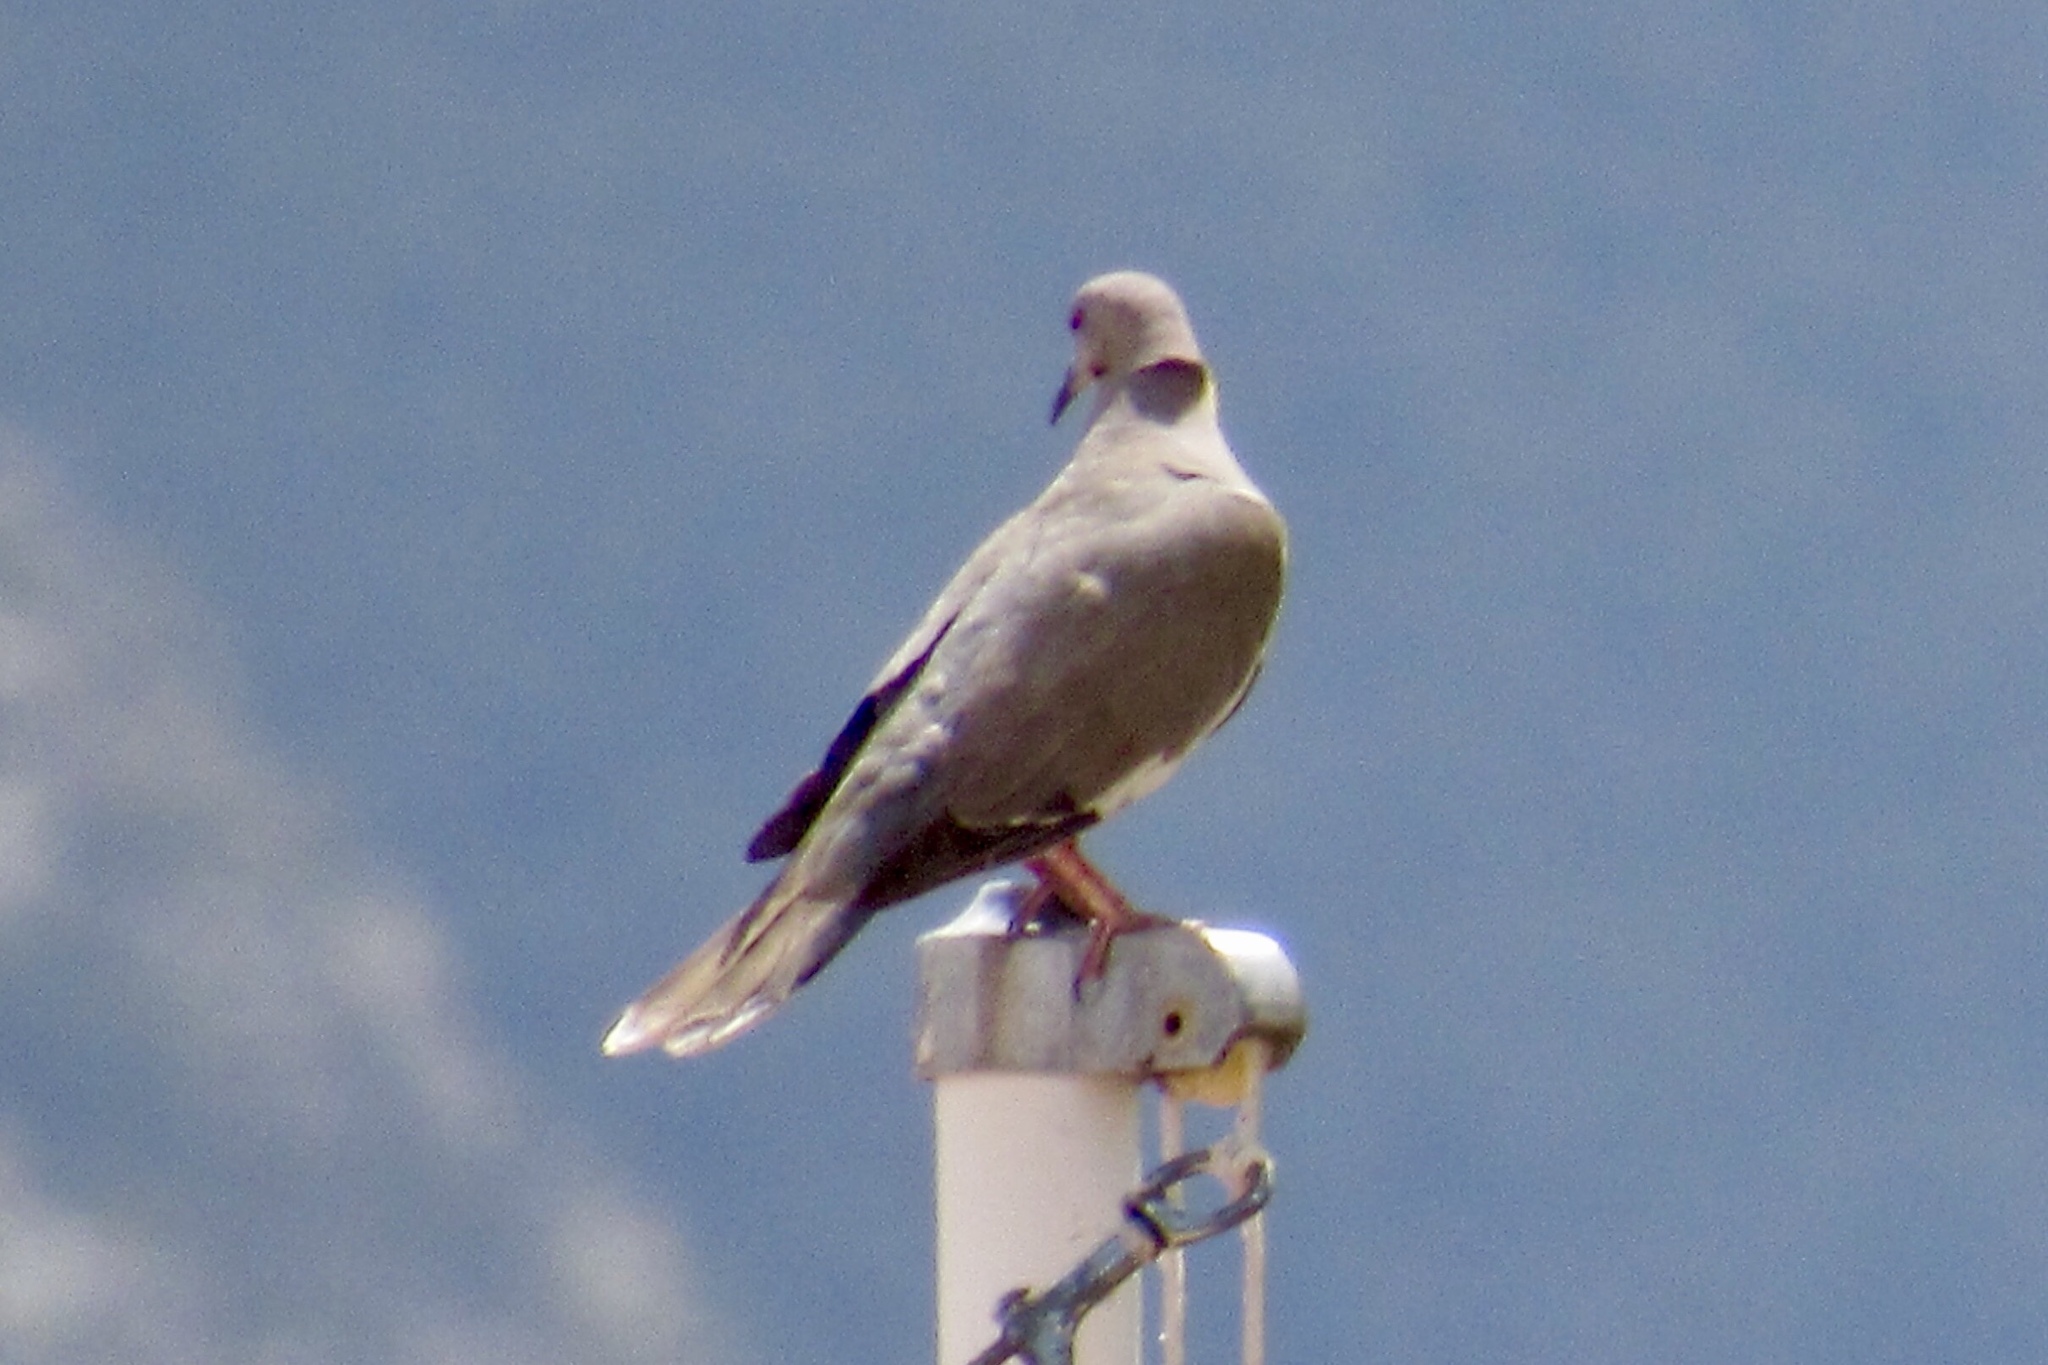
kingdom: Animalia
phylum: Chordata
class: Aves
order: Columbiformes
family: Columbidae
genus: Zenaida
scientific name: Zenaida asiatica
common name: White-winged dove
